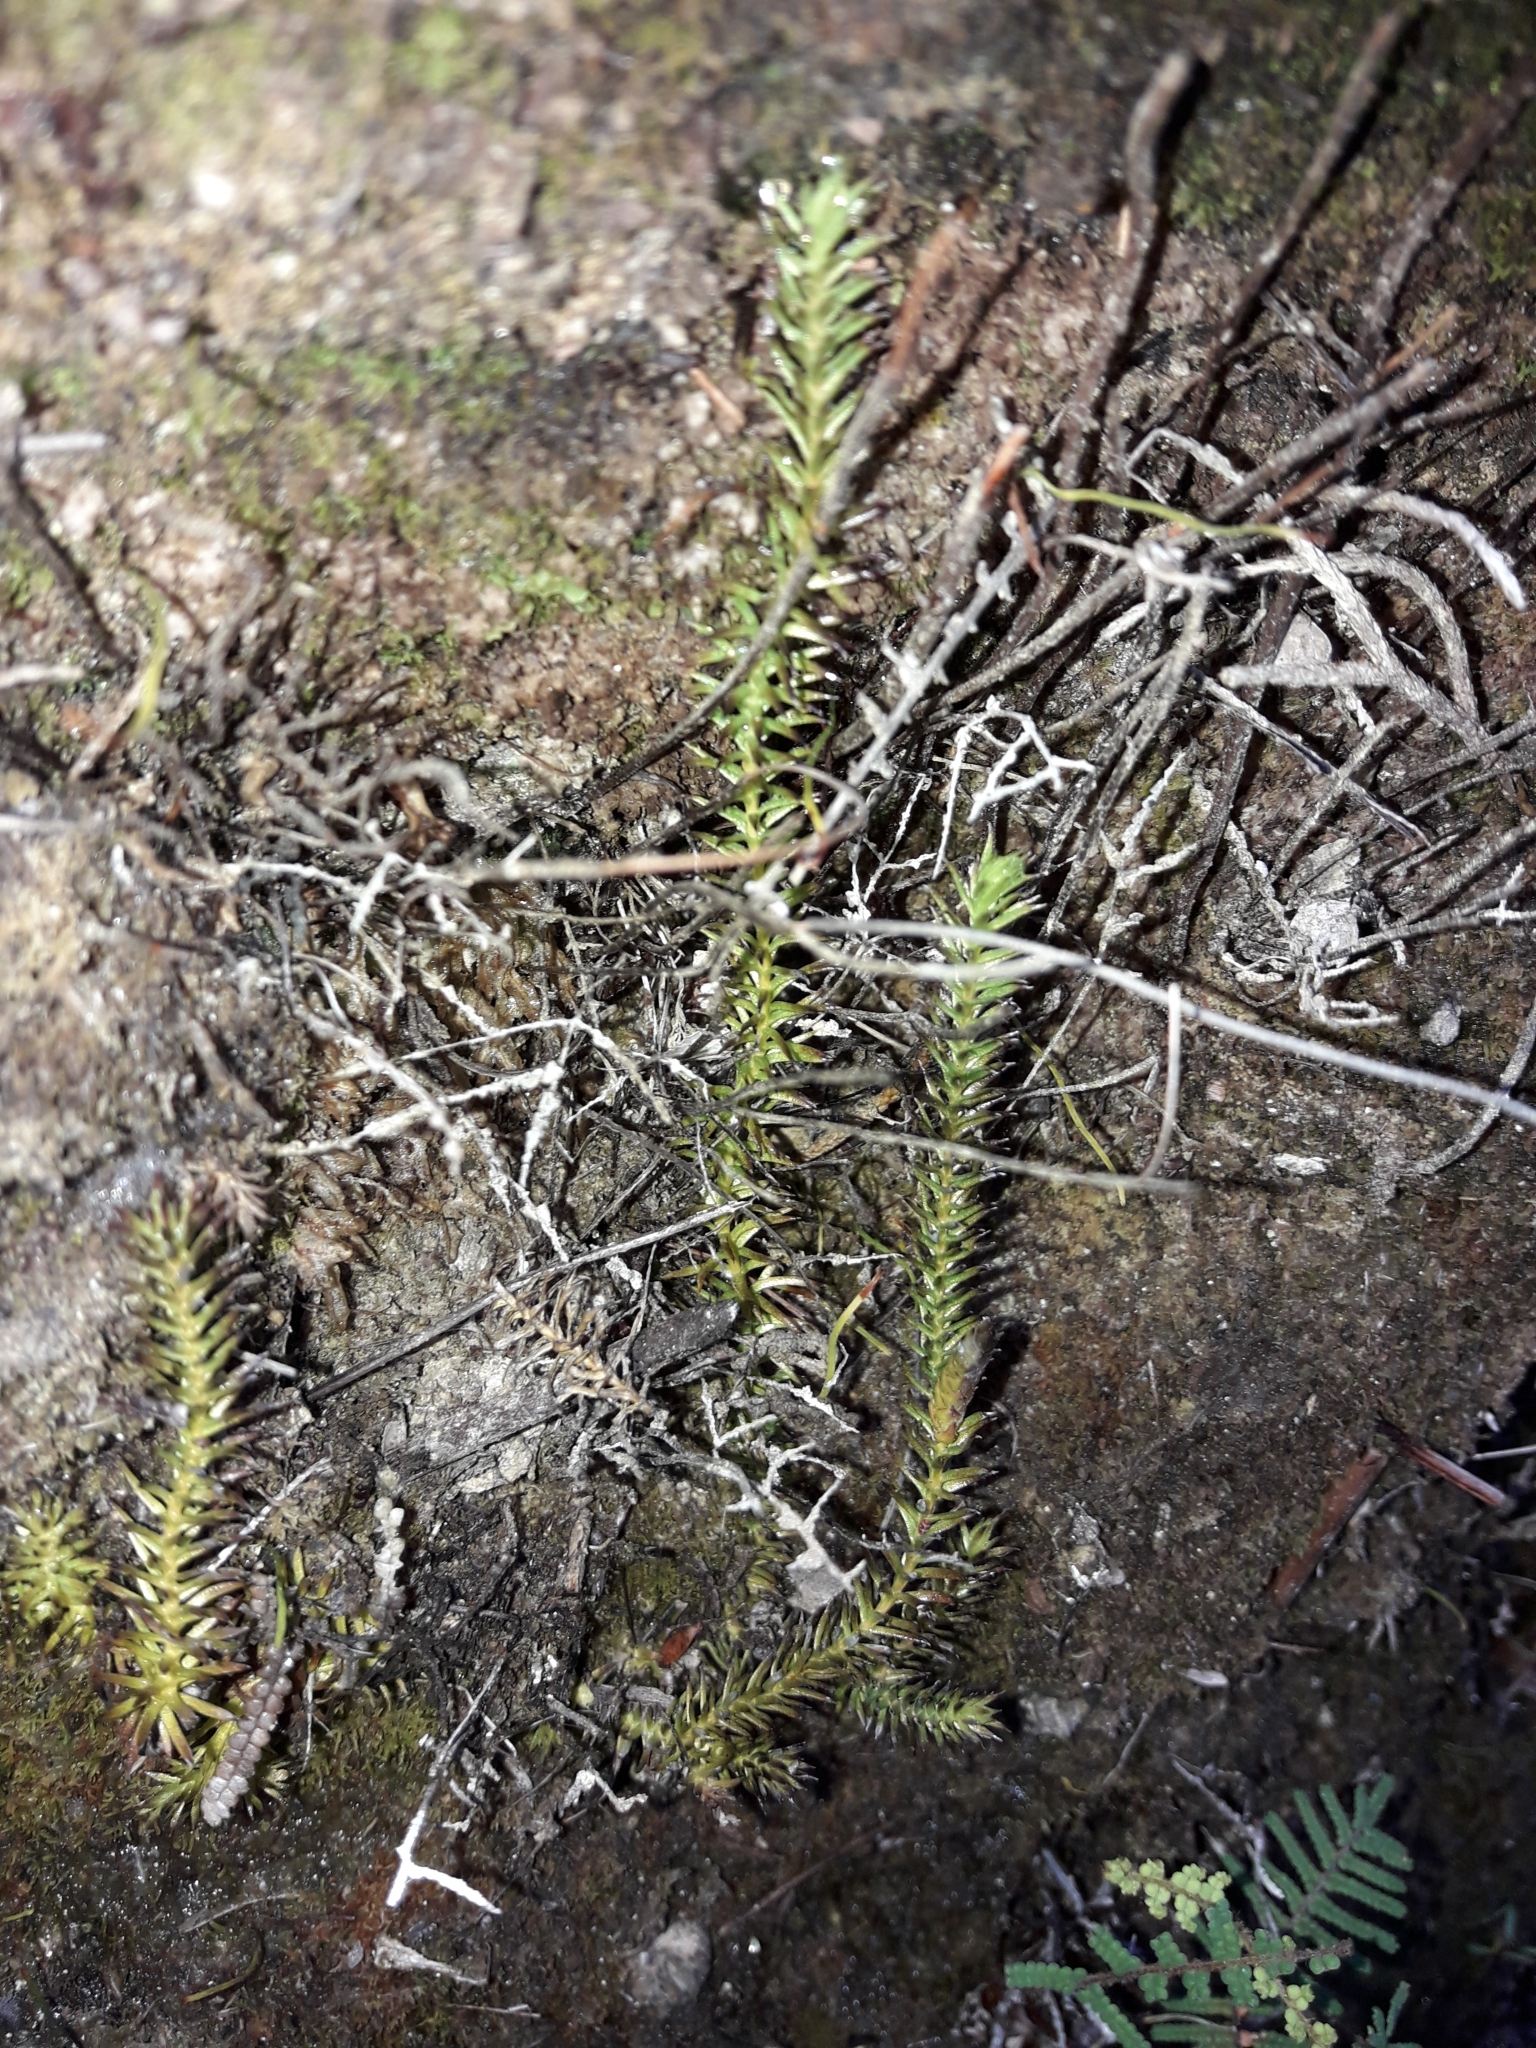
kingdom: Plantae
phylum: Tracheophyta
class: Lycopodiopsida
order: Lycopodiales
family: Lycopodiaceae
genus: Lateristachys
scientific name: Lateristachys lateralis
